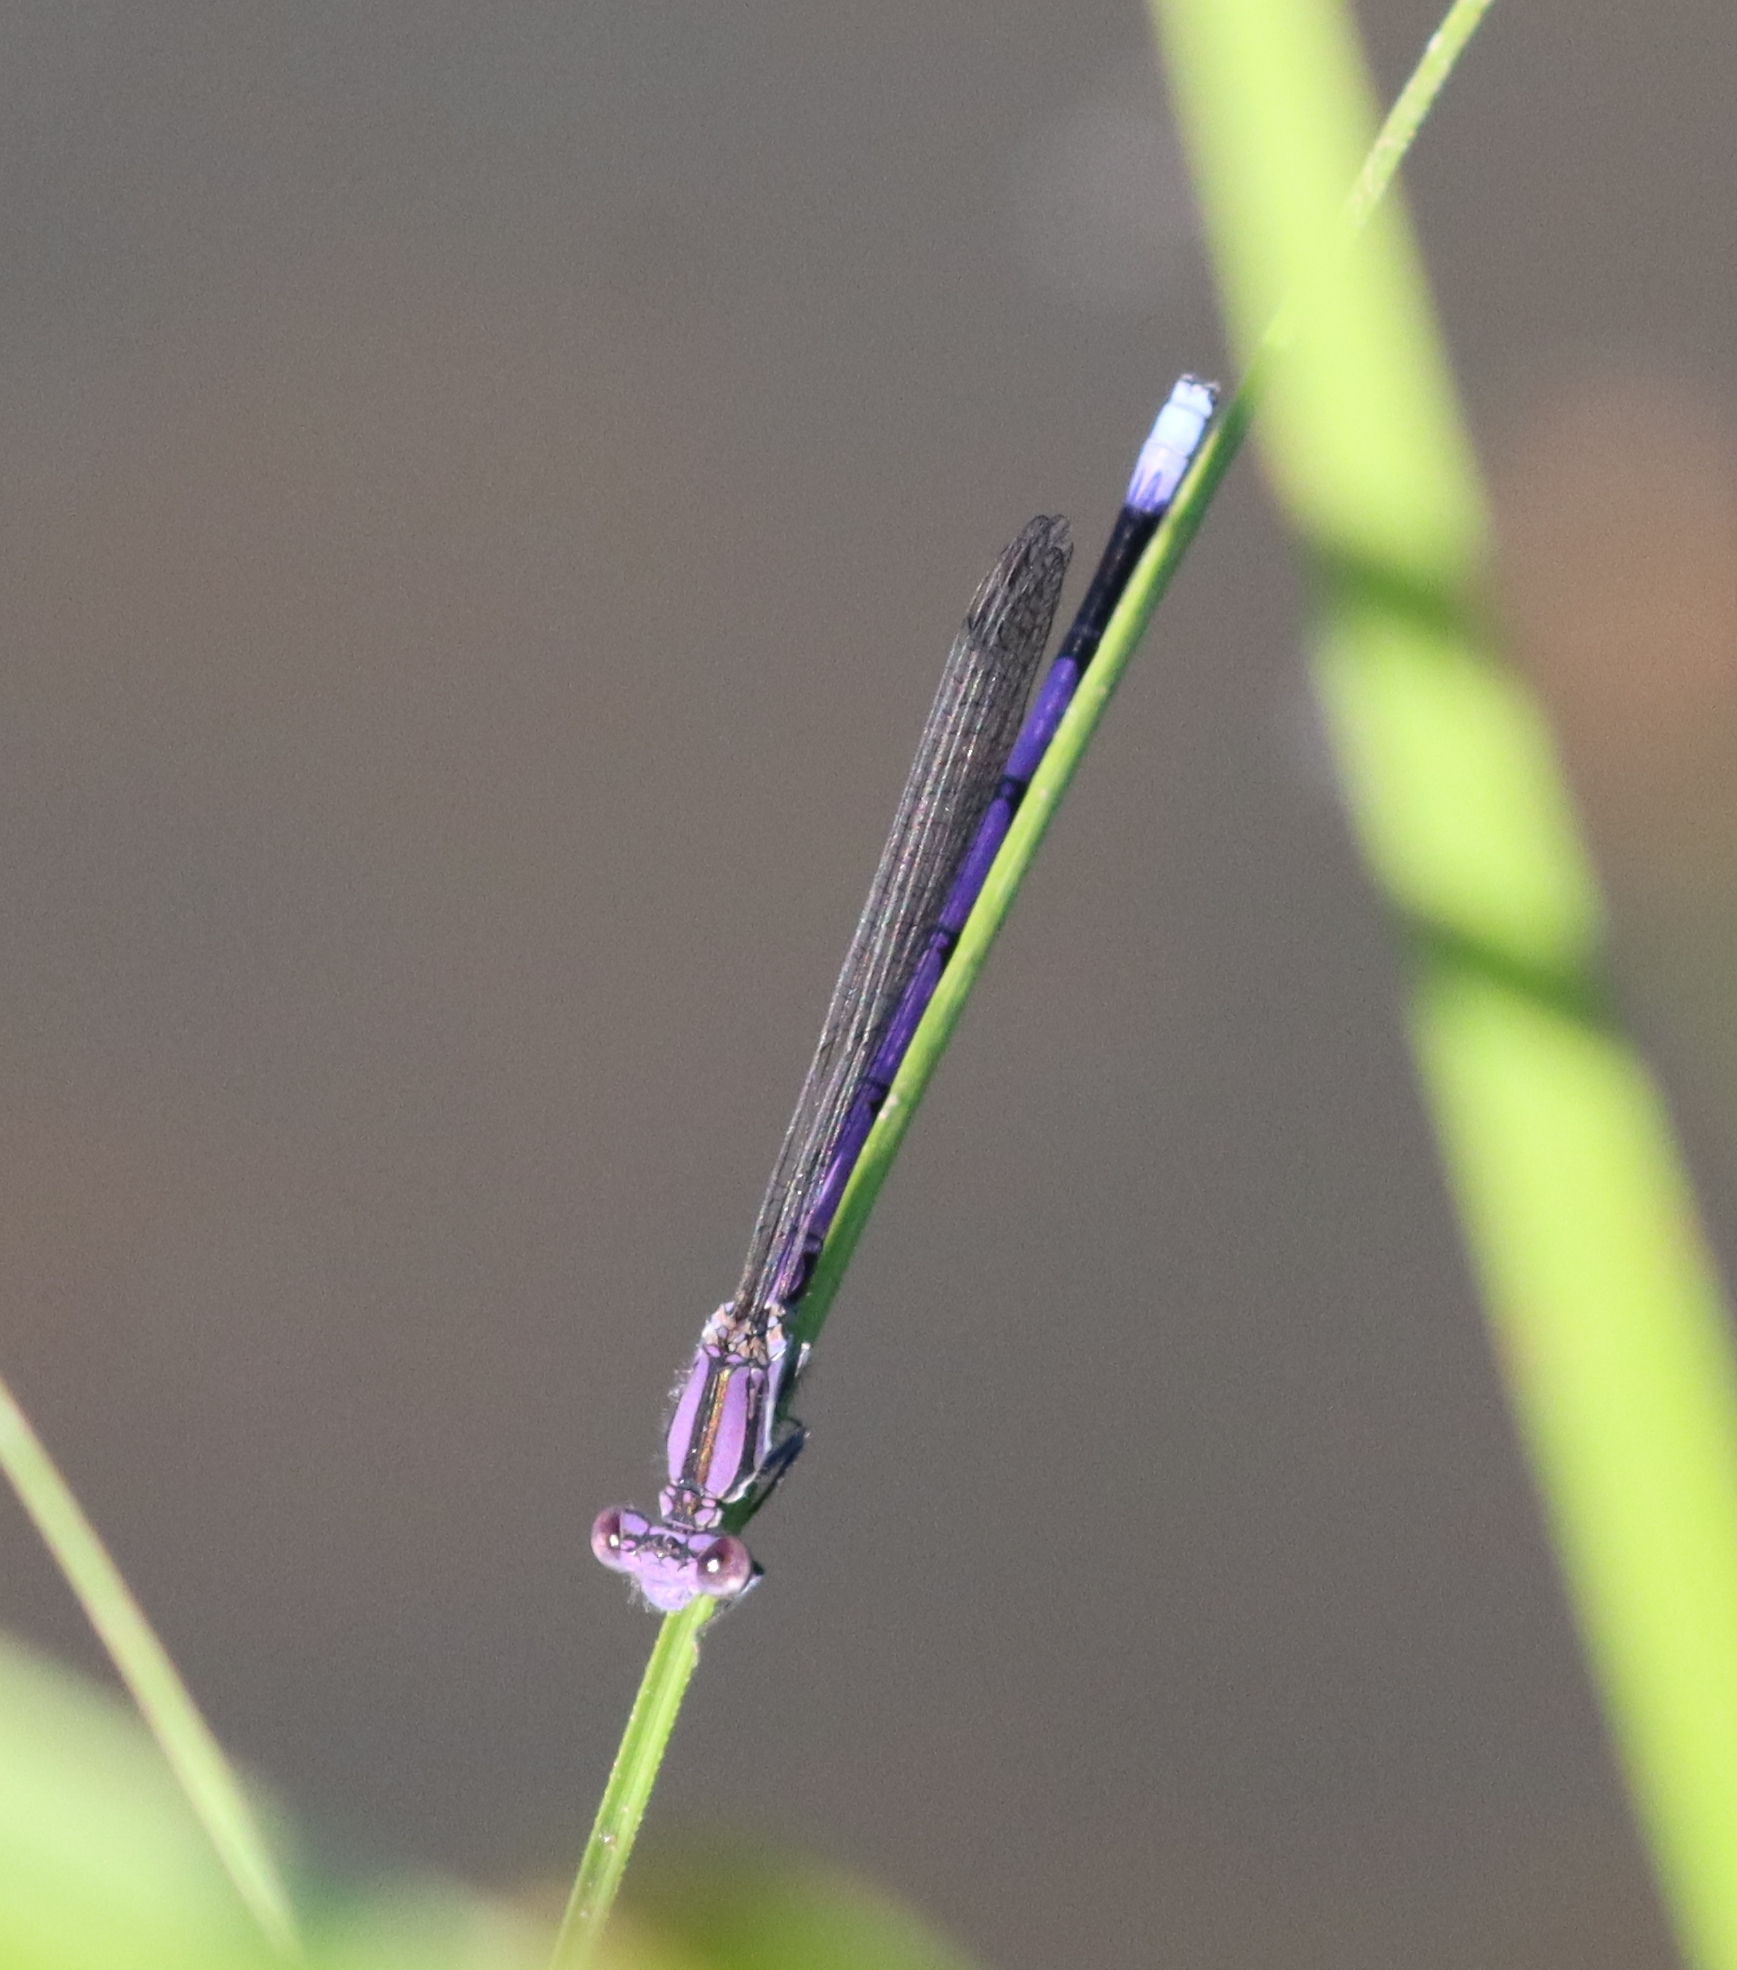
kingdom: Animalia
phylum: Arthropoda
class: Insecta
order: Odonata
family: Coenagrionidae
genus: Argia
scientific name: Argia fumipennis
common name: Variable dancer
